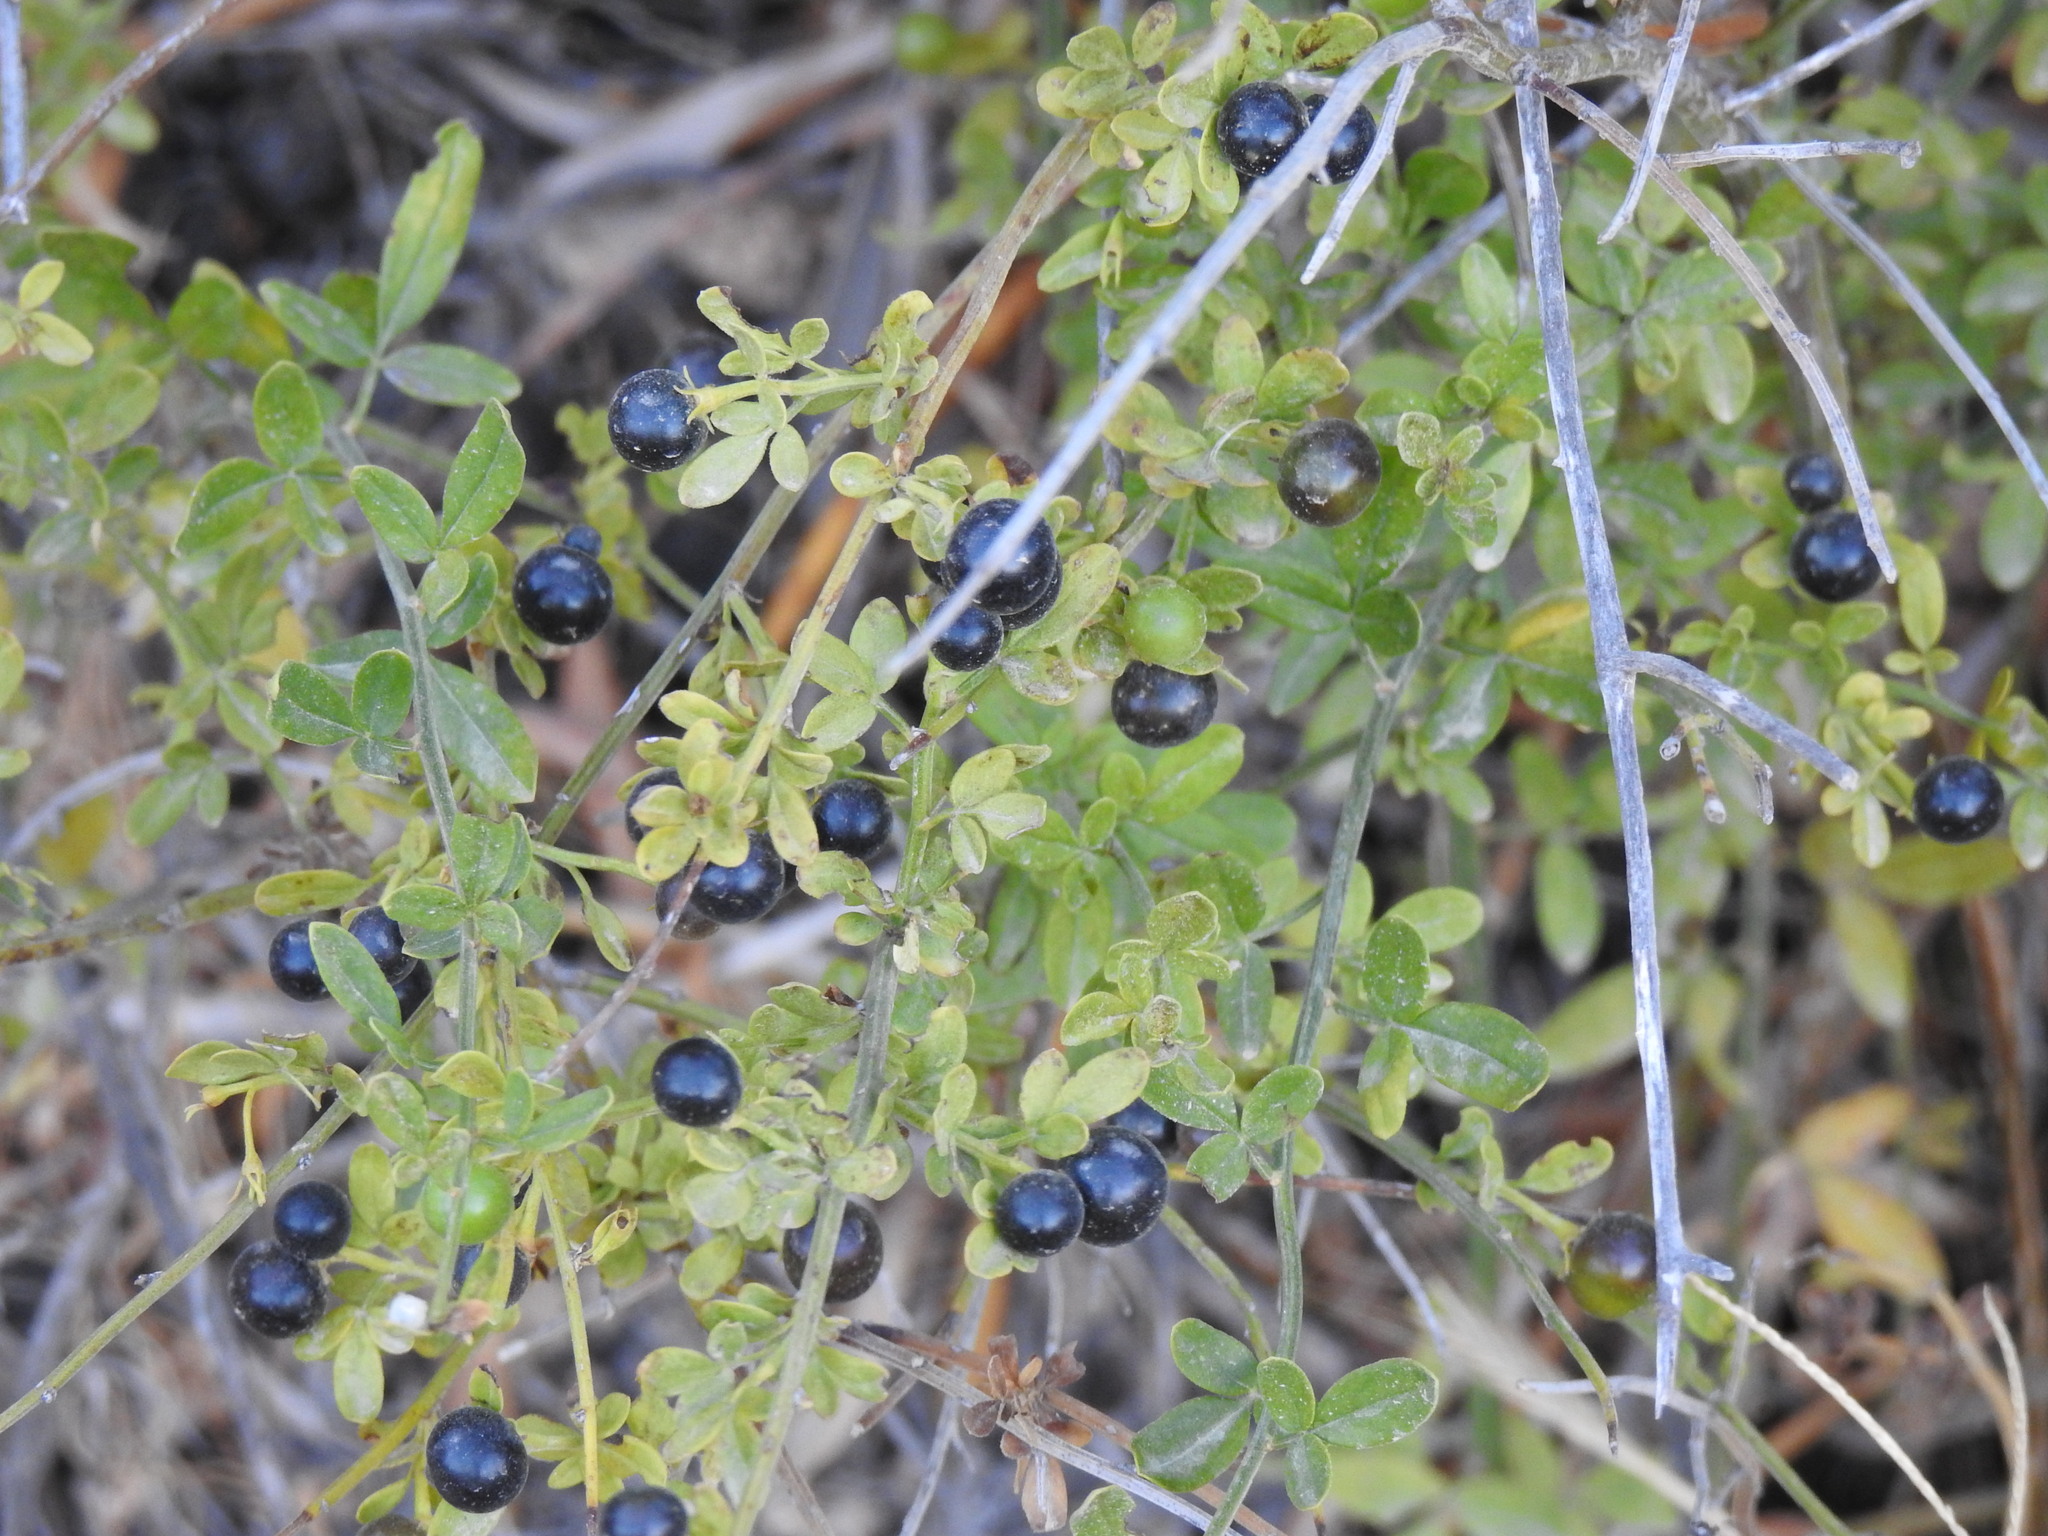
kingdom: Plantae
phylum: Tracheophyta
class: Magnoliopsida
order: Lamiales
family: Oleaceae
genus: Chrysojasminum
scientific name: Chrysojasminum fruticans
